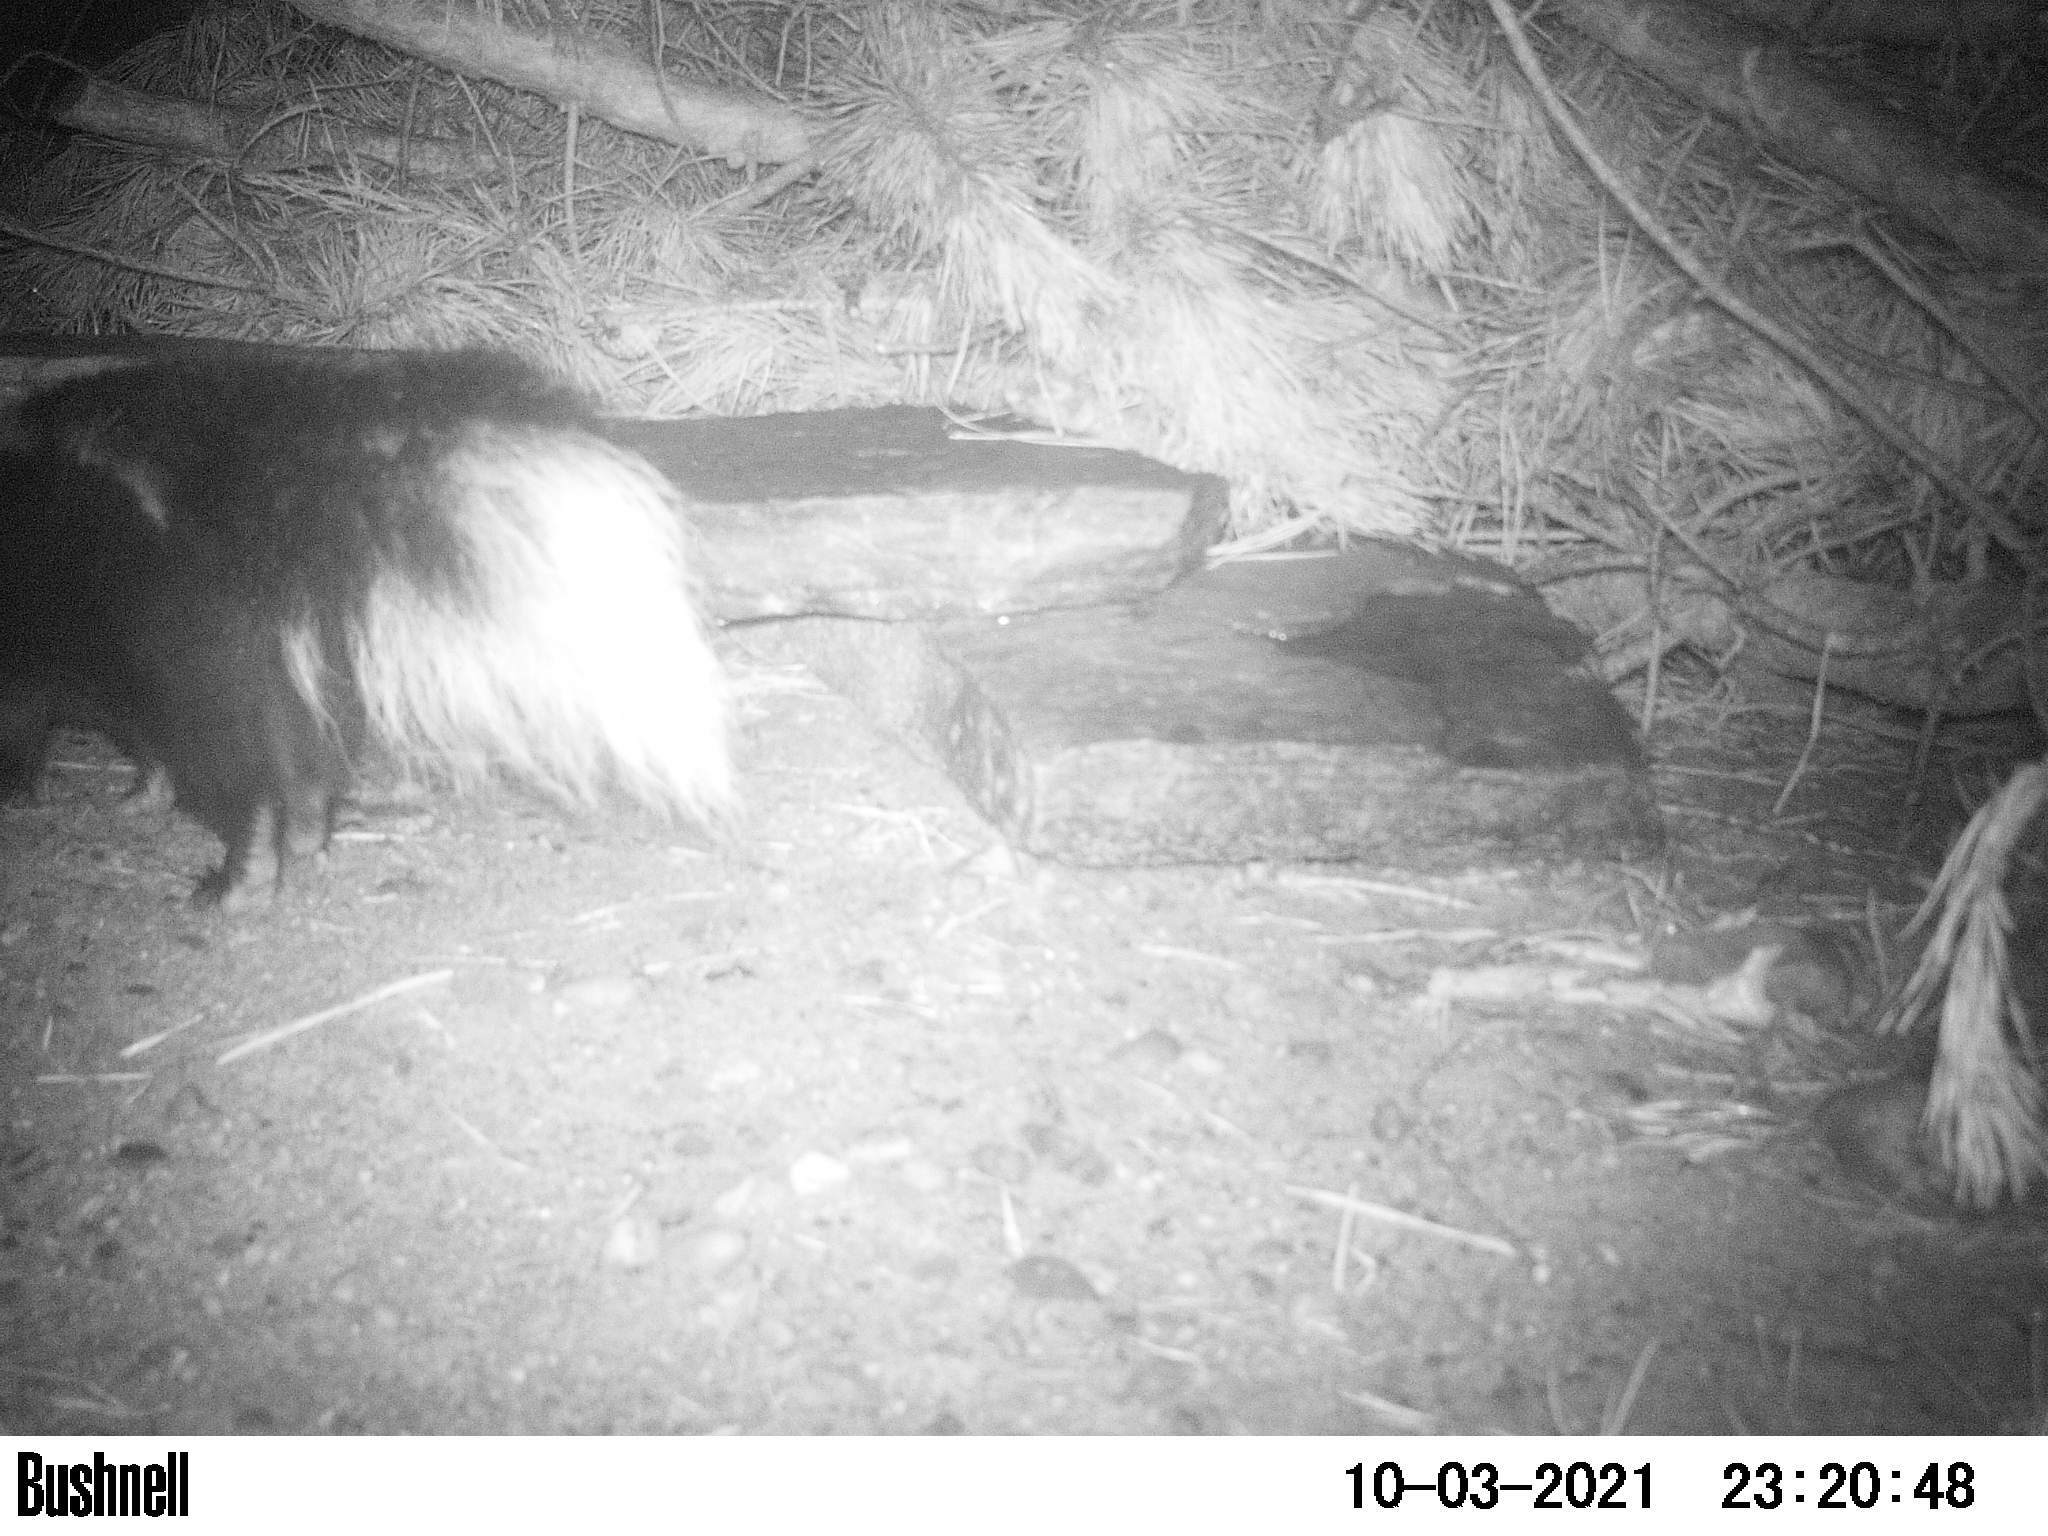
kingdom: Animalia
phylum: Chordata
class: Mammalia
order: Carnivora
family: Mephitidae
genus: Mephitis
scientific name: Mephitis mephitis
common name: Striped skunk
